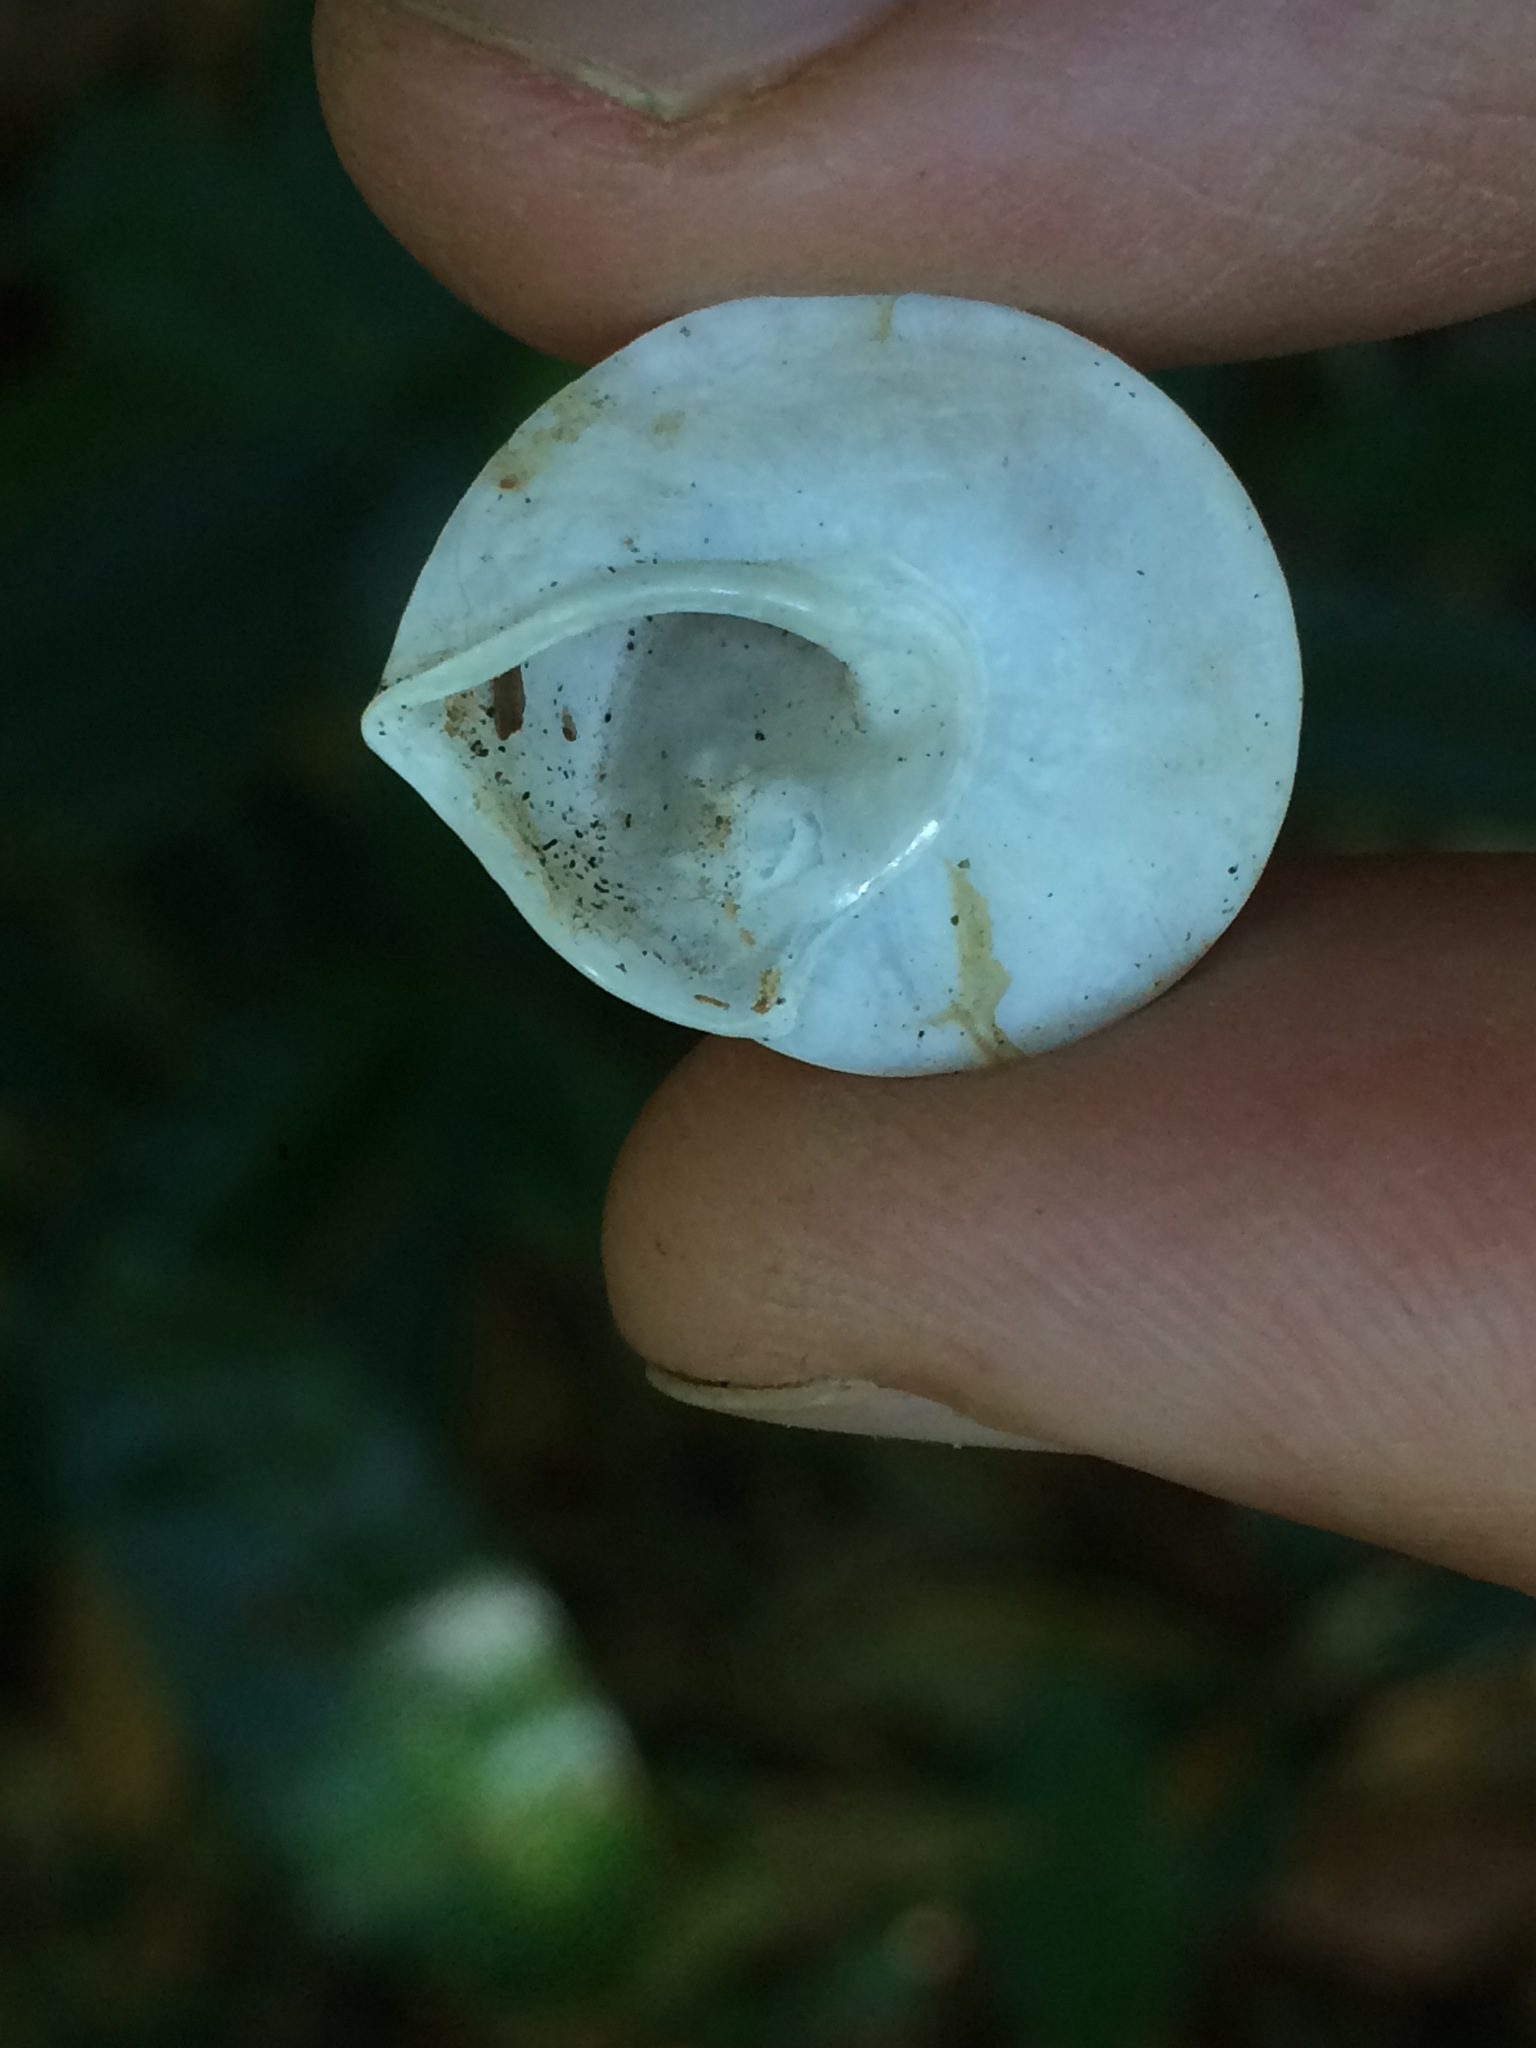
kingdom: Animalia
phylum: Mollusca
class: Gastropoda
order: Stylommatophora
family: Bulimulidae
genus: Oxychona
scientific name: Oxychona currani
